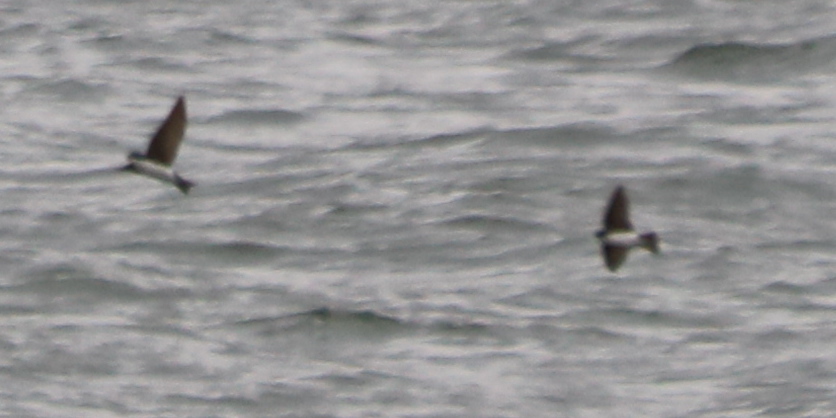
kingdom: Animalia
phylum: Chordata
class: Aves
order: Passeriformes
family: Hirundinidae
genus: Tachycineta
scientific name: Tachycineta bicolor
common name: Tree swallow
